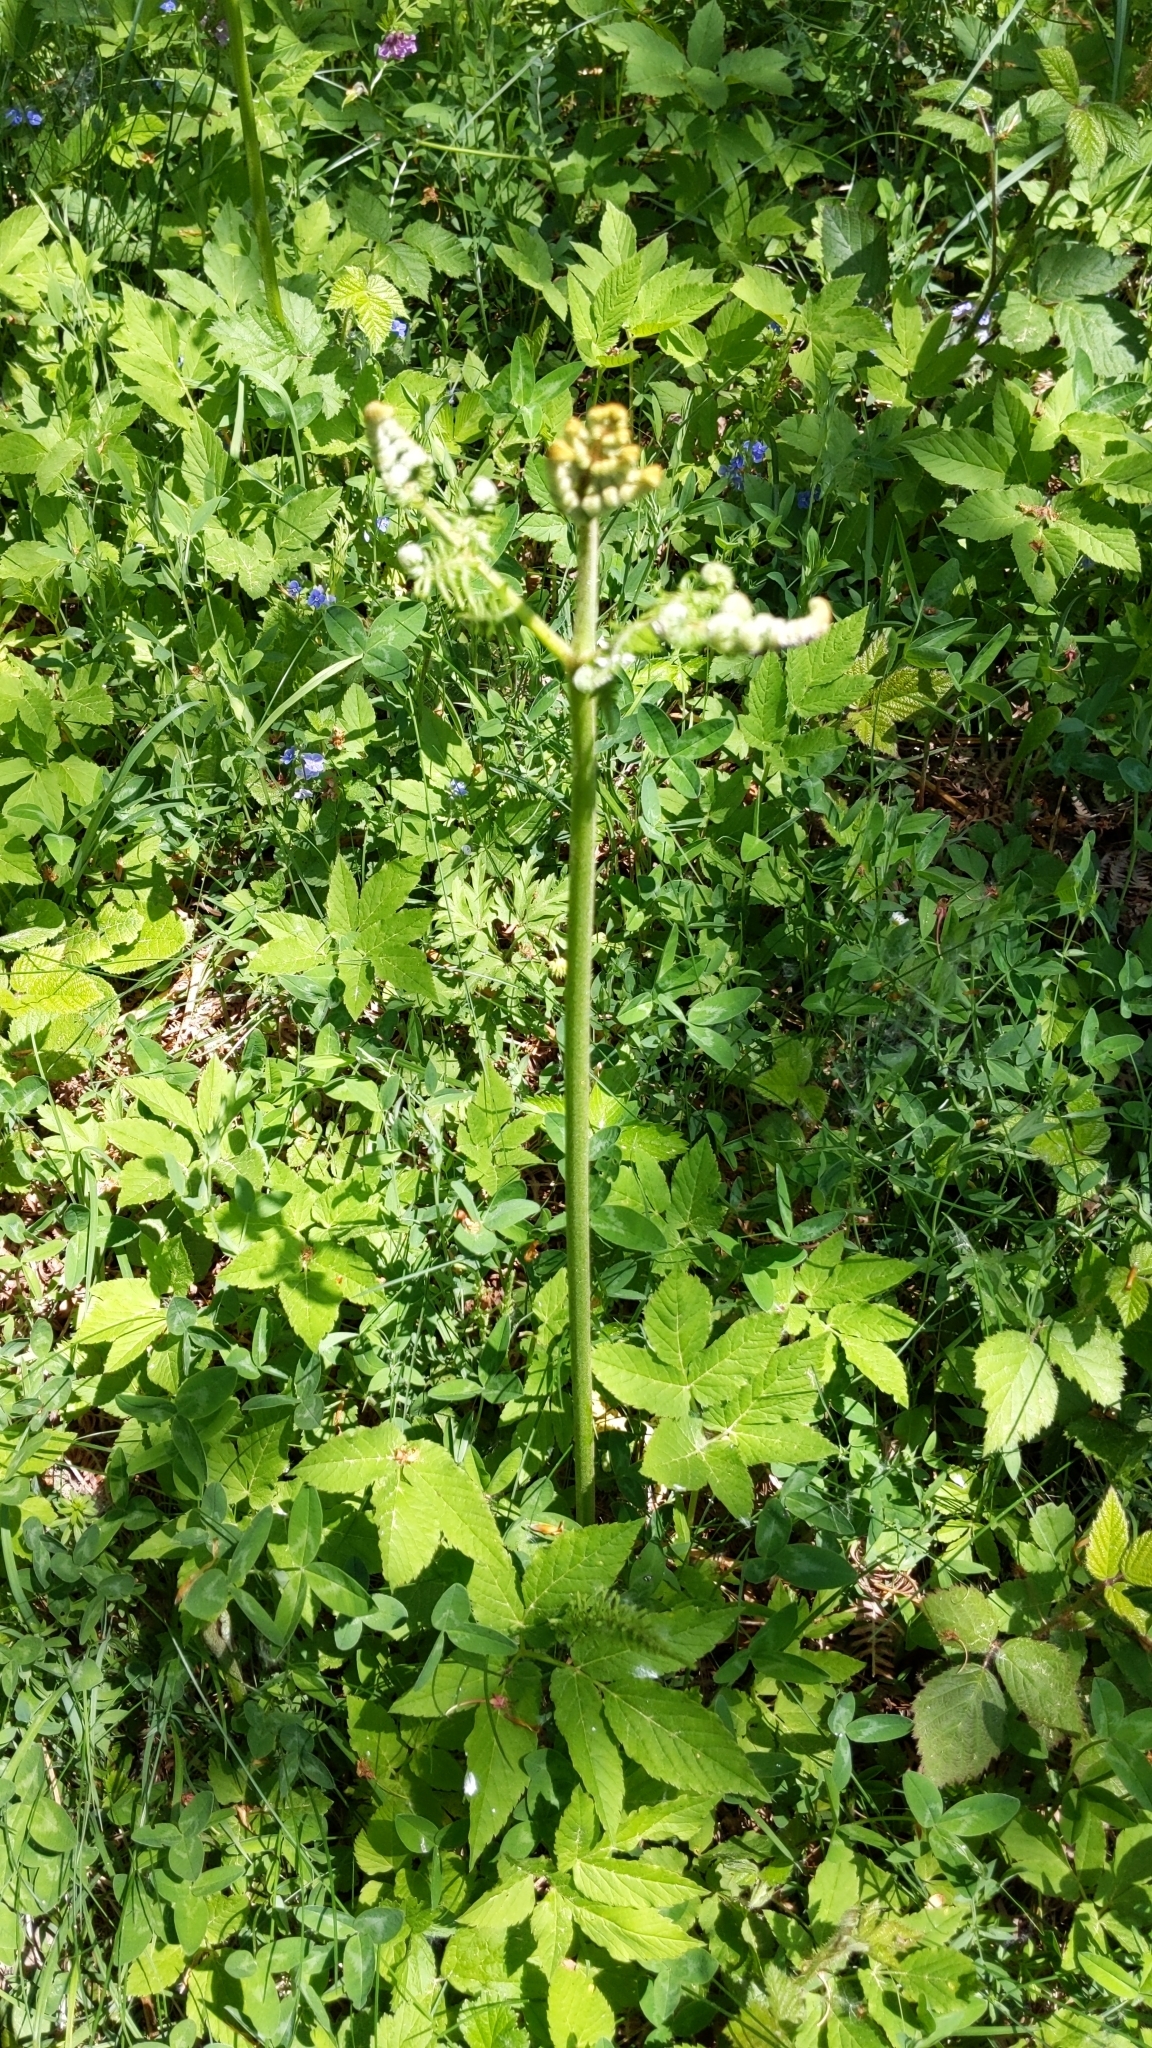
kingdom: Plantae
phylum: Tracheophyta
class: Polypodiopsida
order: Polypodiales
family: Dennstaedtiaceae
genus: Pteridium
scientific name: Pteridium aquilinum
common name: Bracken
